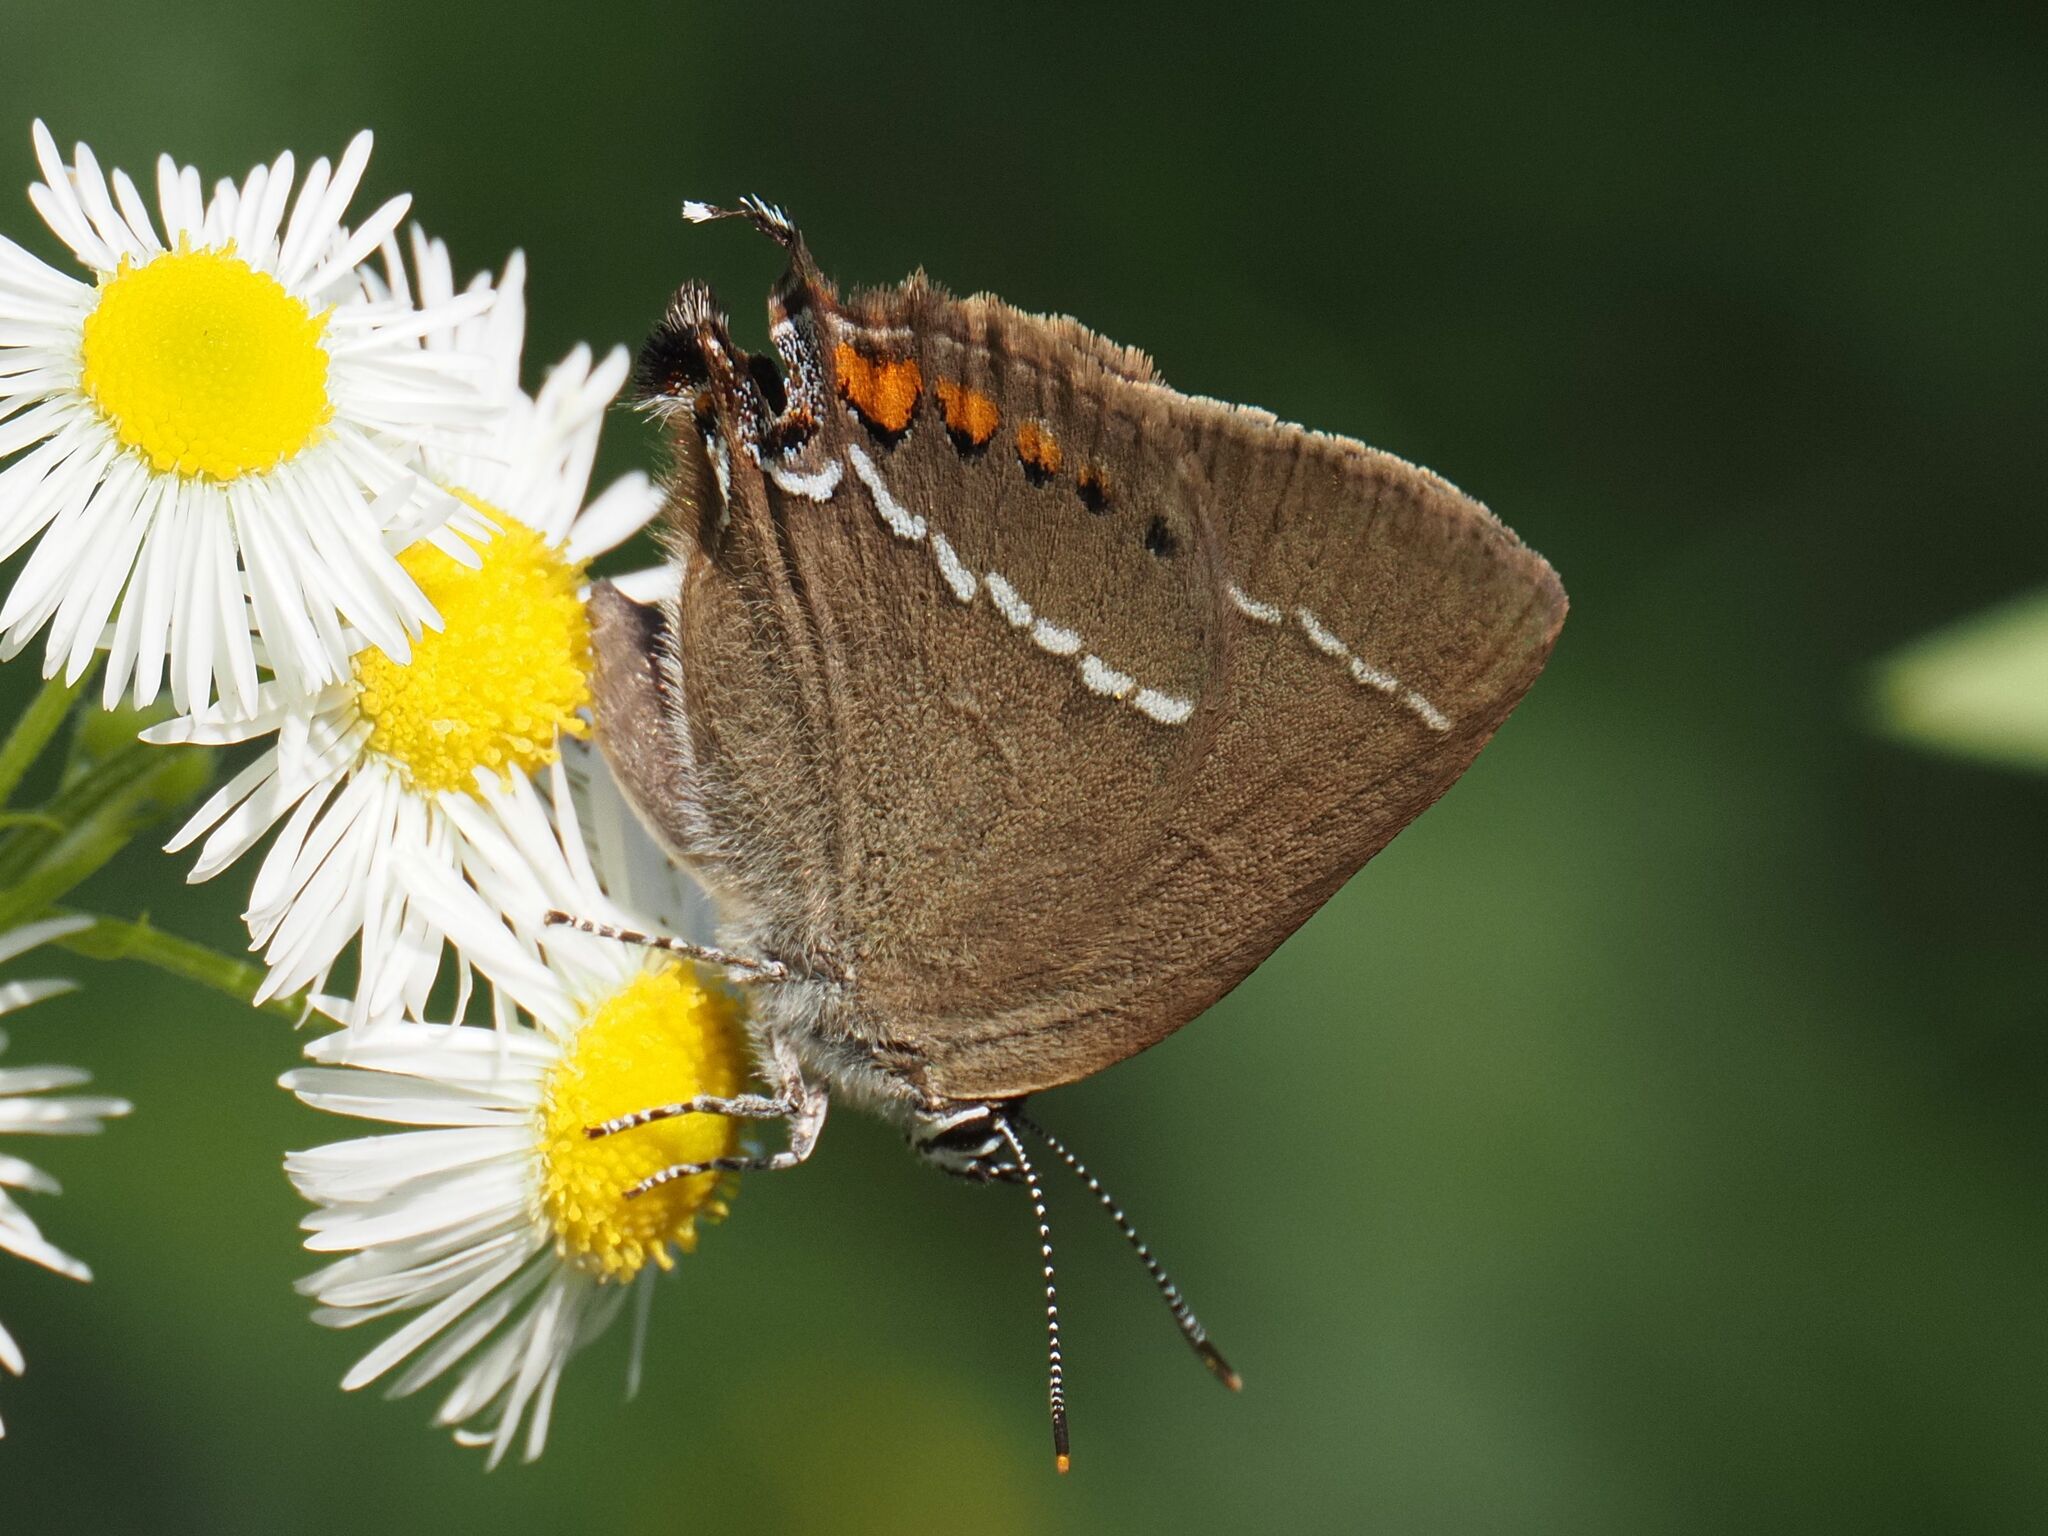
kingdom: Animalia
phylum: Arthropoda
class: Insecta
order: Lepidoptera
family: Lycaenidae
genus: Tuttiola
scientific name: Tuttiola spini
